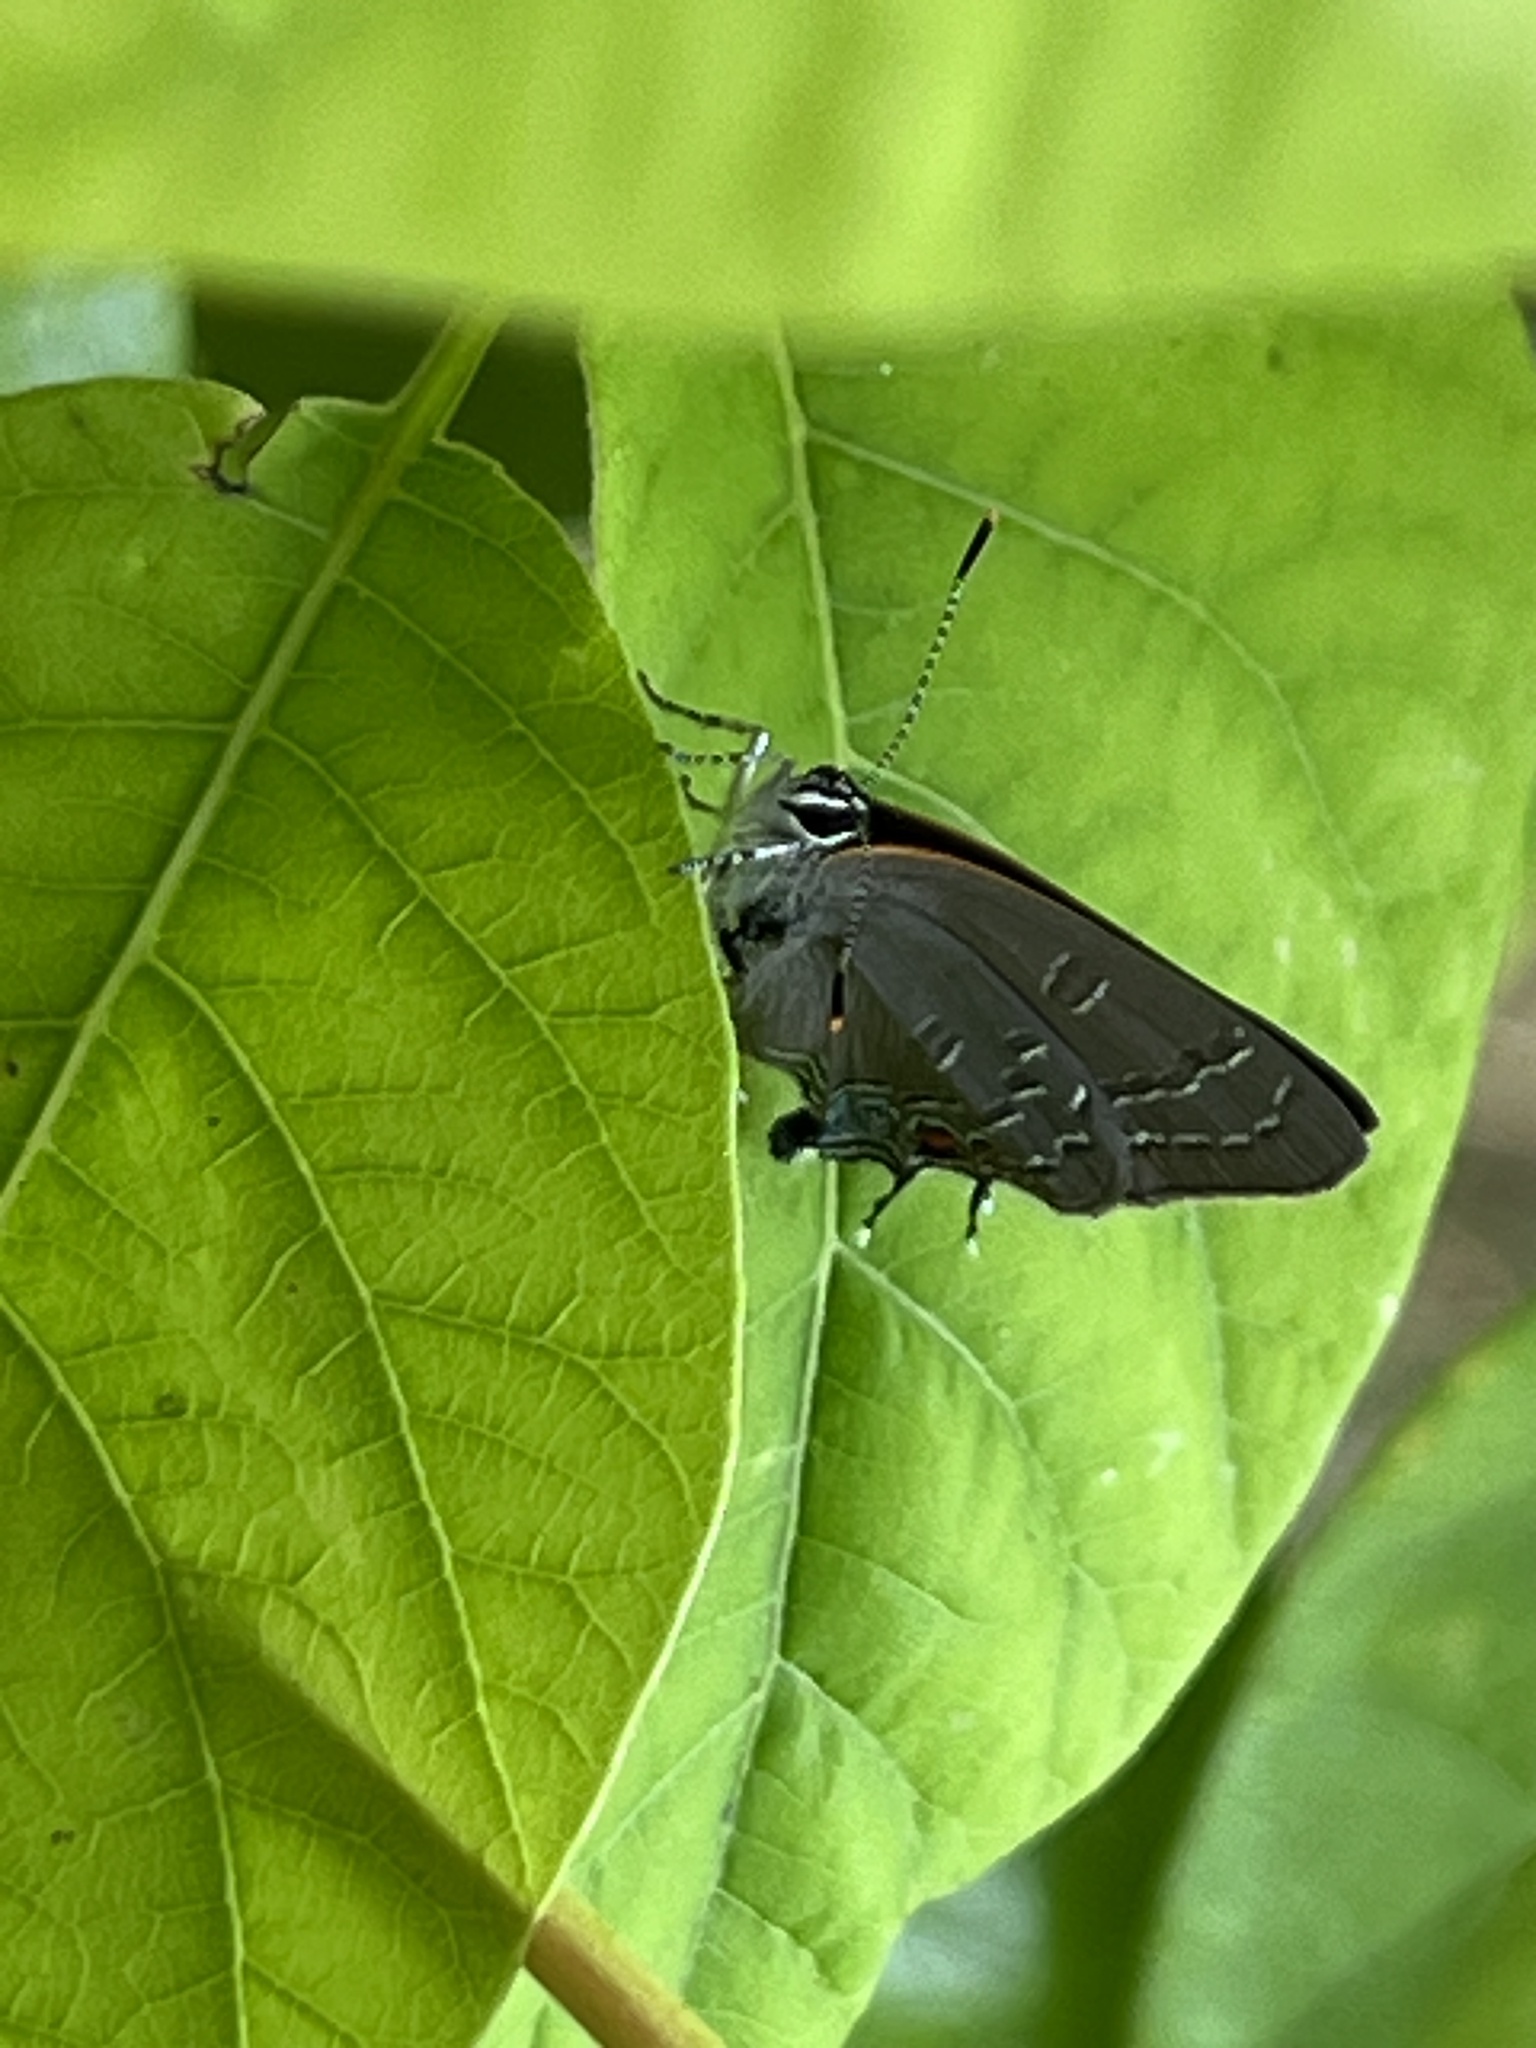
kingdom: Animalia
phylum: Arthropoda
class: Insecta
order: Lepidoptera
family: Lycaenidae
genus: Satyrium
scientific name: Satyrium calanus
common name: Banded hairstreak
